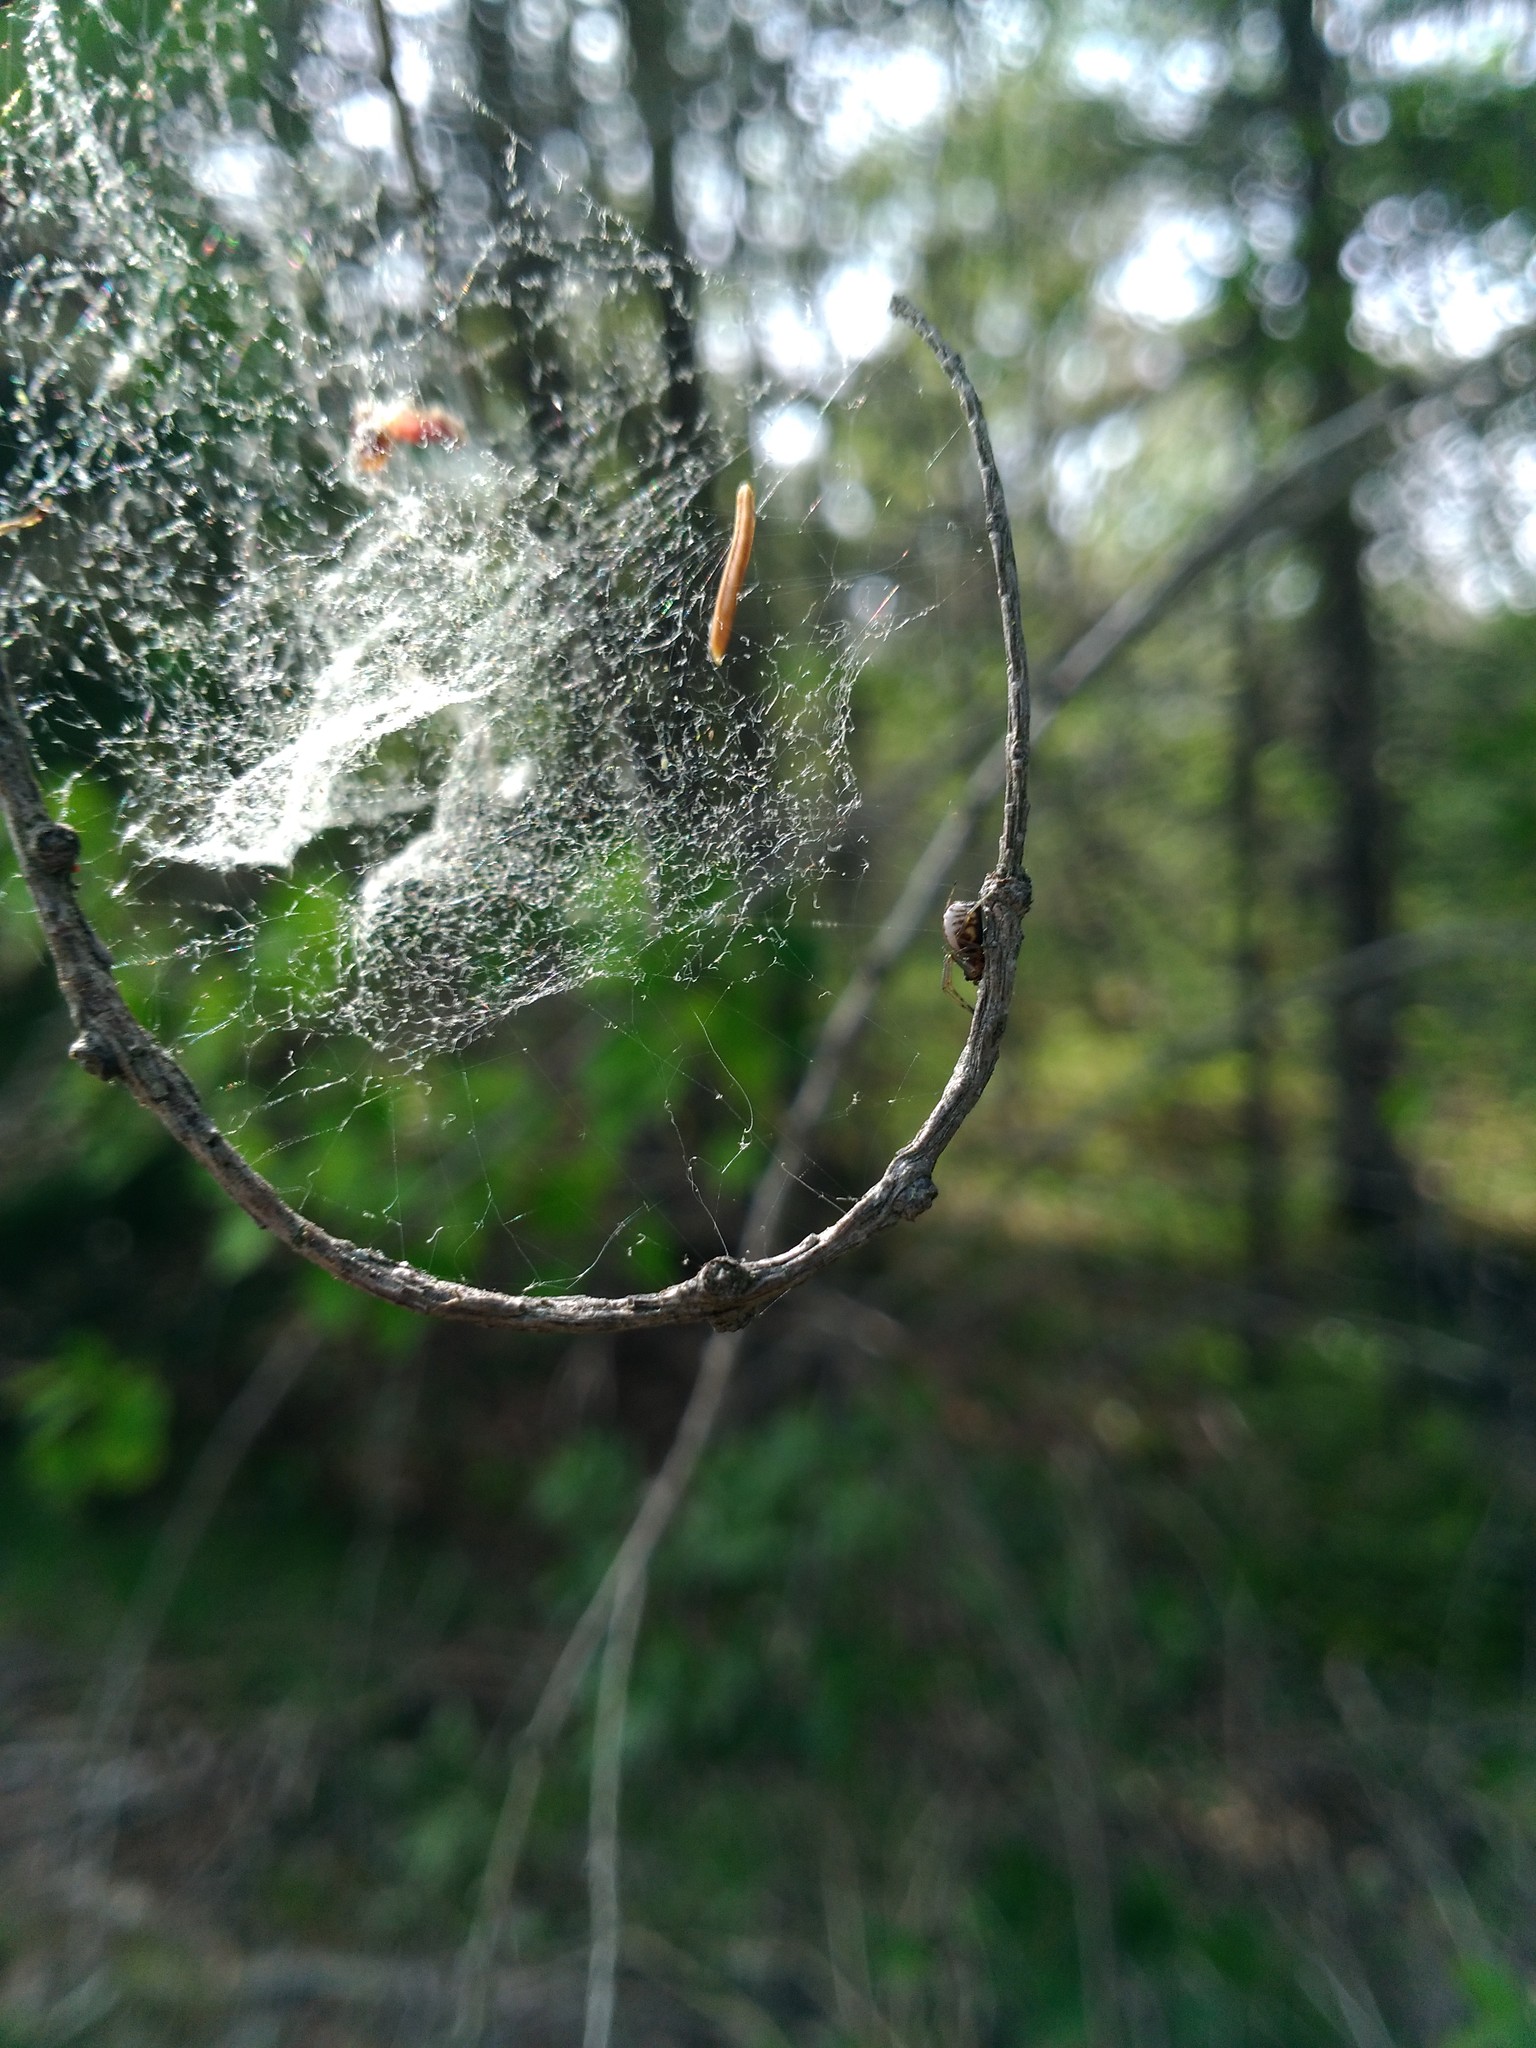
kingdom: Animalia
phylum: Arthropoda
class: Arachnida
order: Araneae
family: Linyphiidae
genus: Frontinella
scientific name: Frontinella pyramitela
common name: Bowl-and-doily spider
